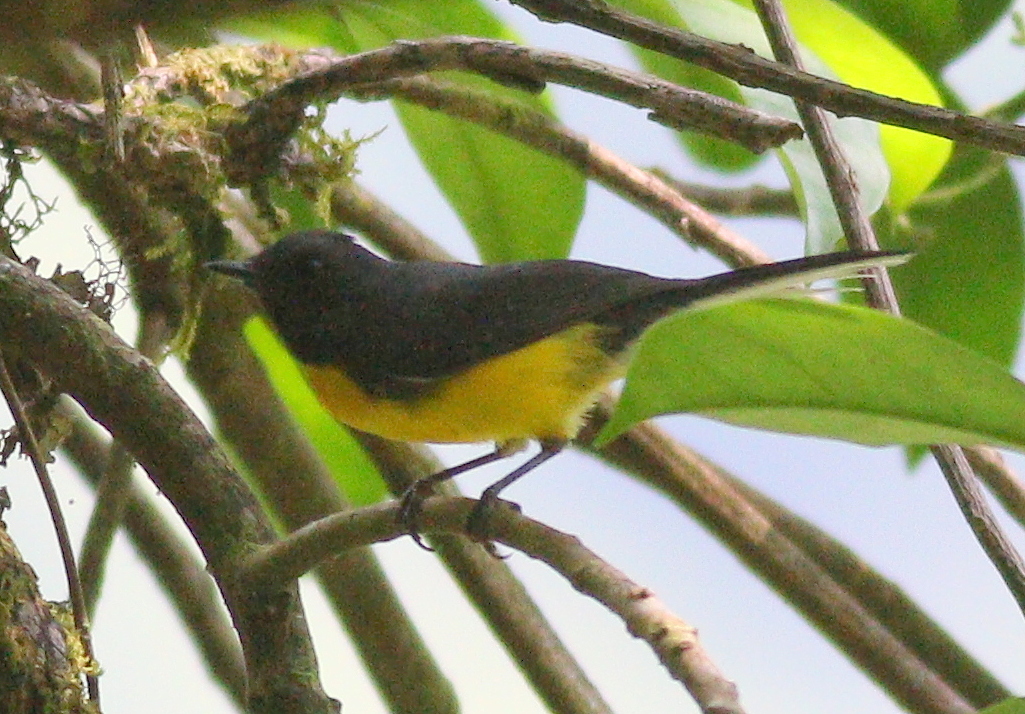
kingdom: Animalia
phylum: Chordata
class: Aves
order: Passeriformes
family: Parulidae
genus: Myioborus
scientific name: Myioborus miniatus
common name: Slate-throated redstart
